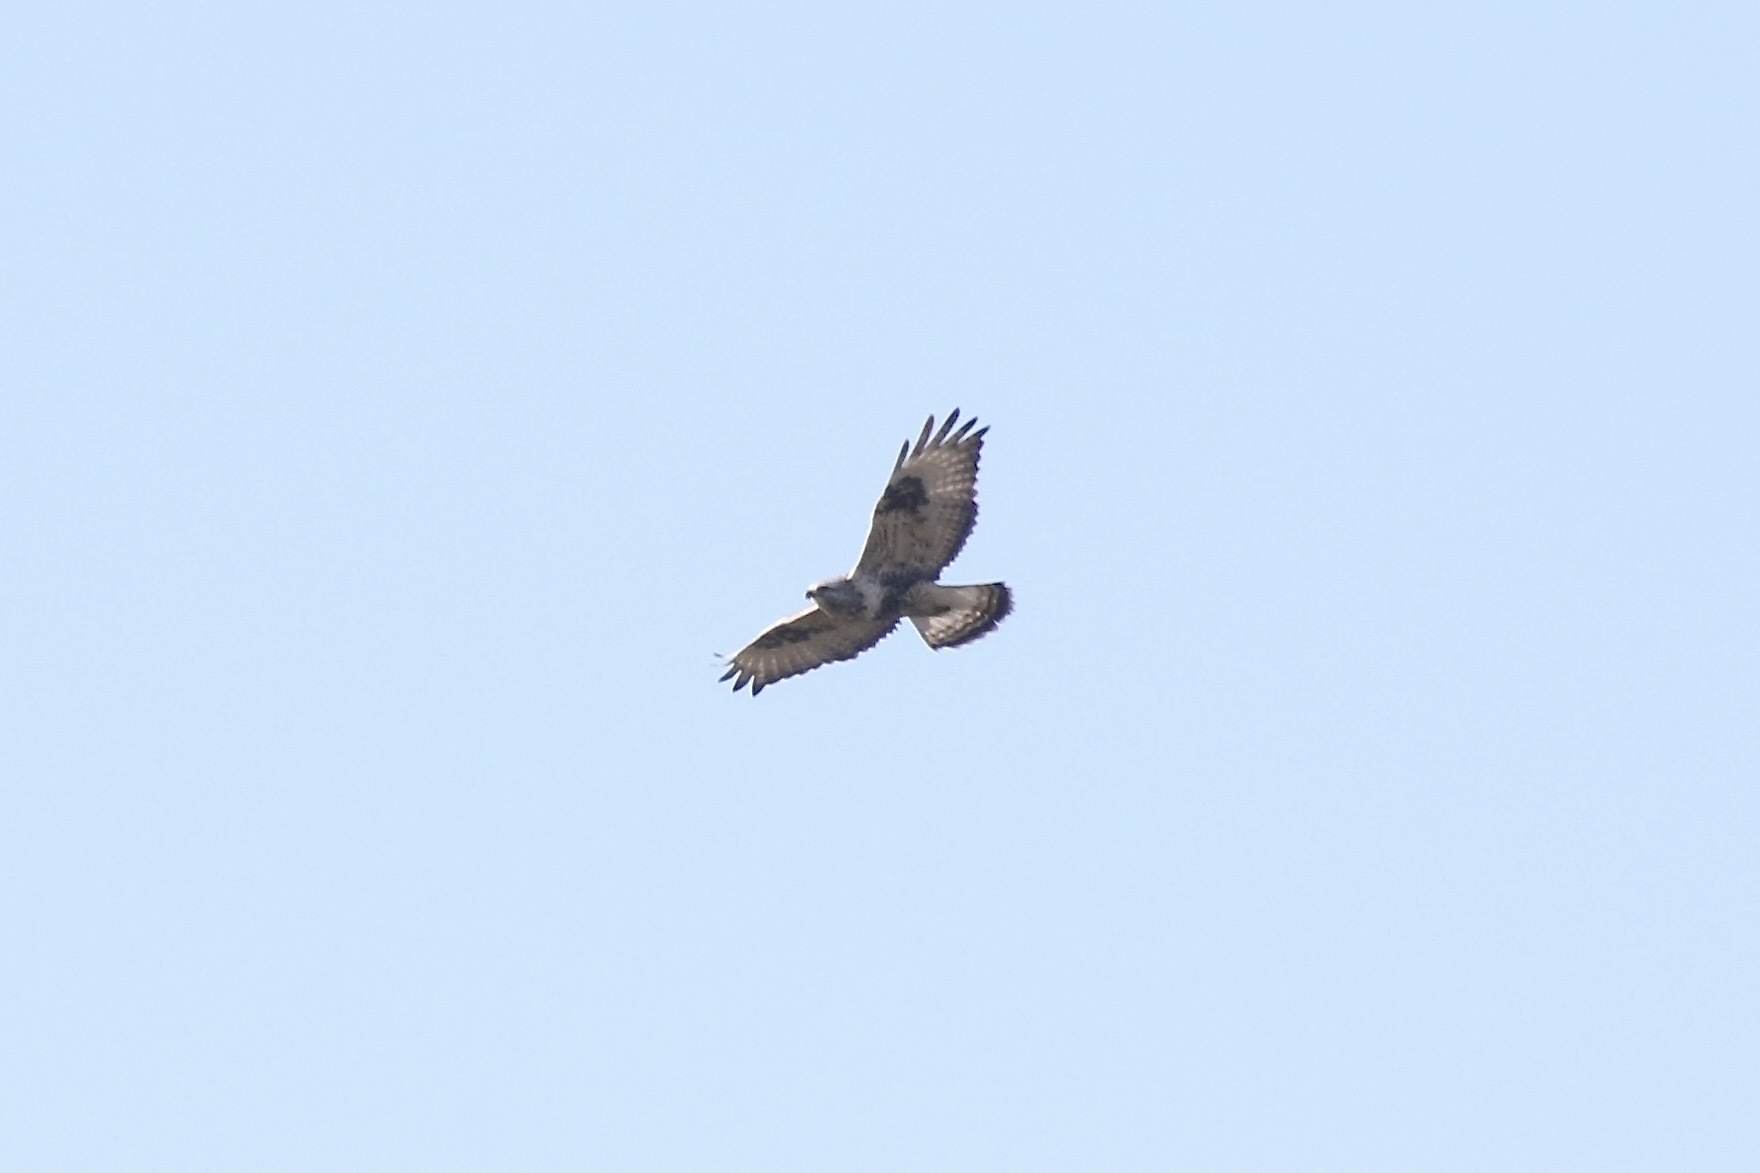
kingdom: Animalia
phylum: Chordata
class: Aves
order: Accipitriformes
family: Accipitridae
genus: Buteo
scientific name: Buteo lagopus
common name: Rough-legged buzzard
